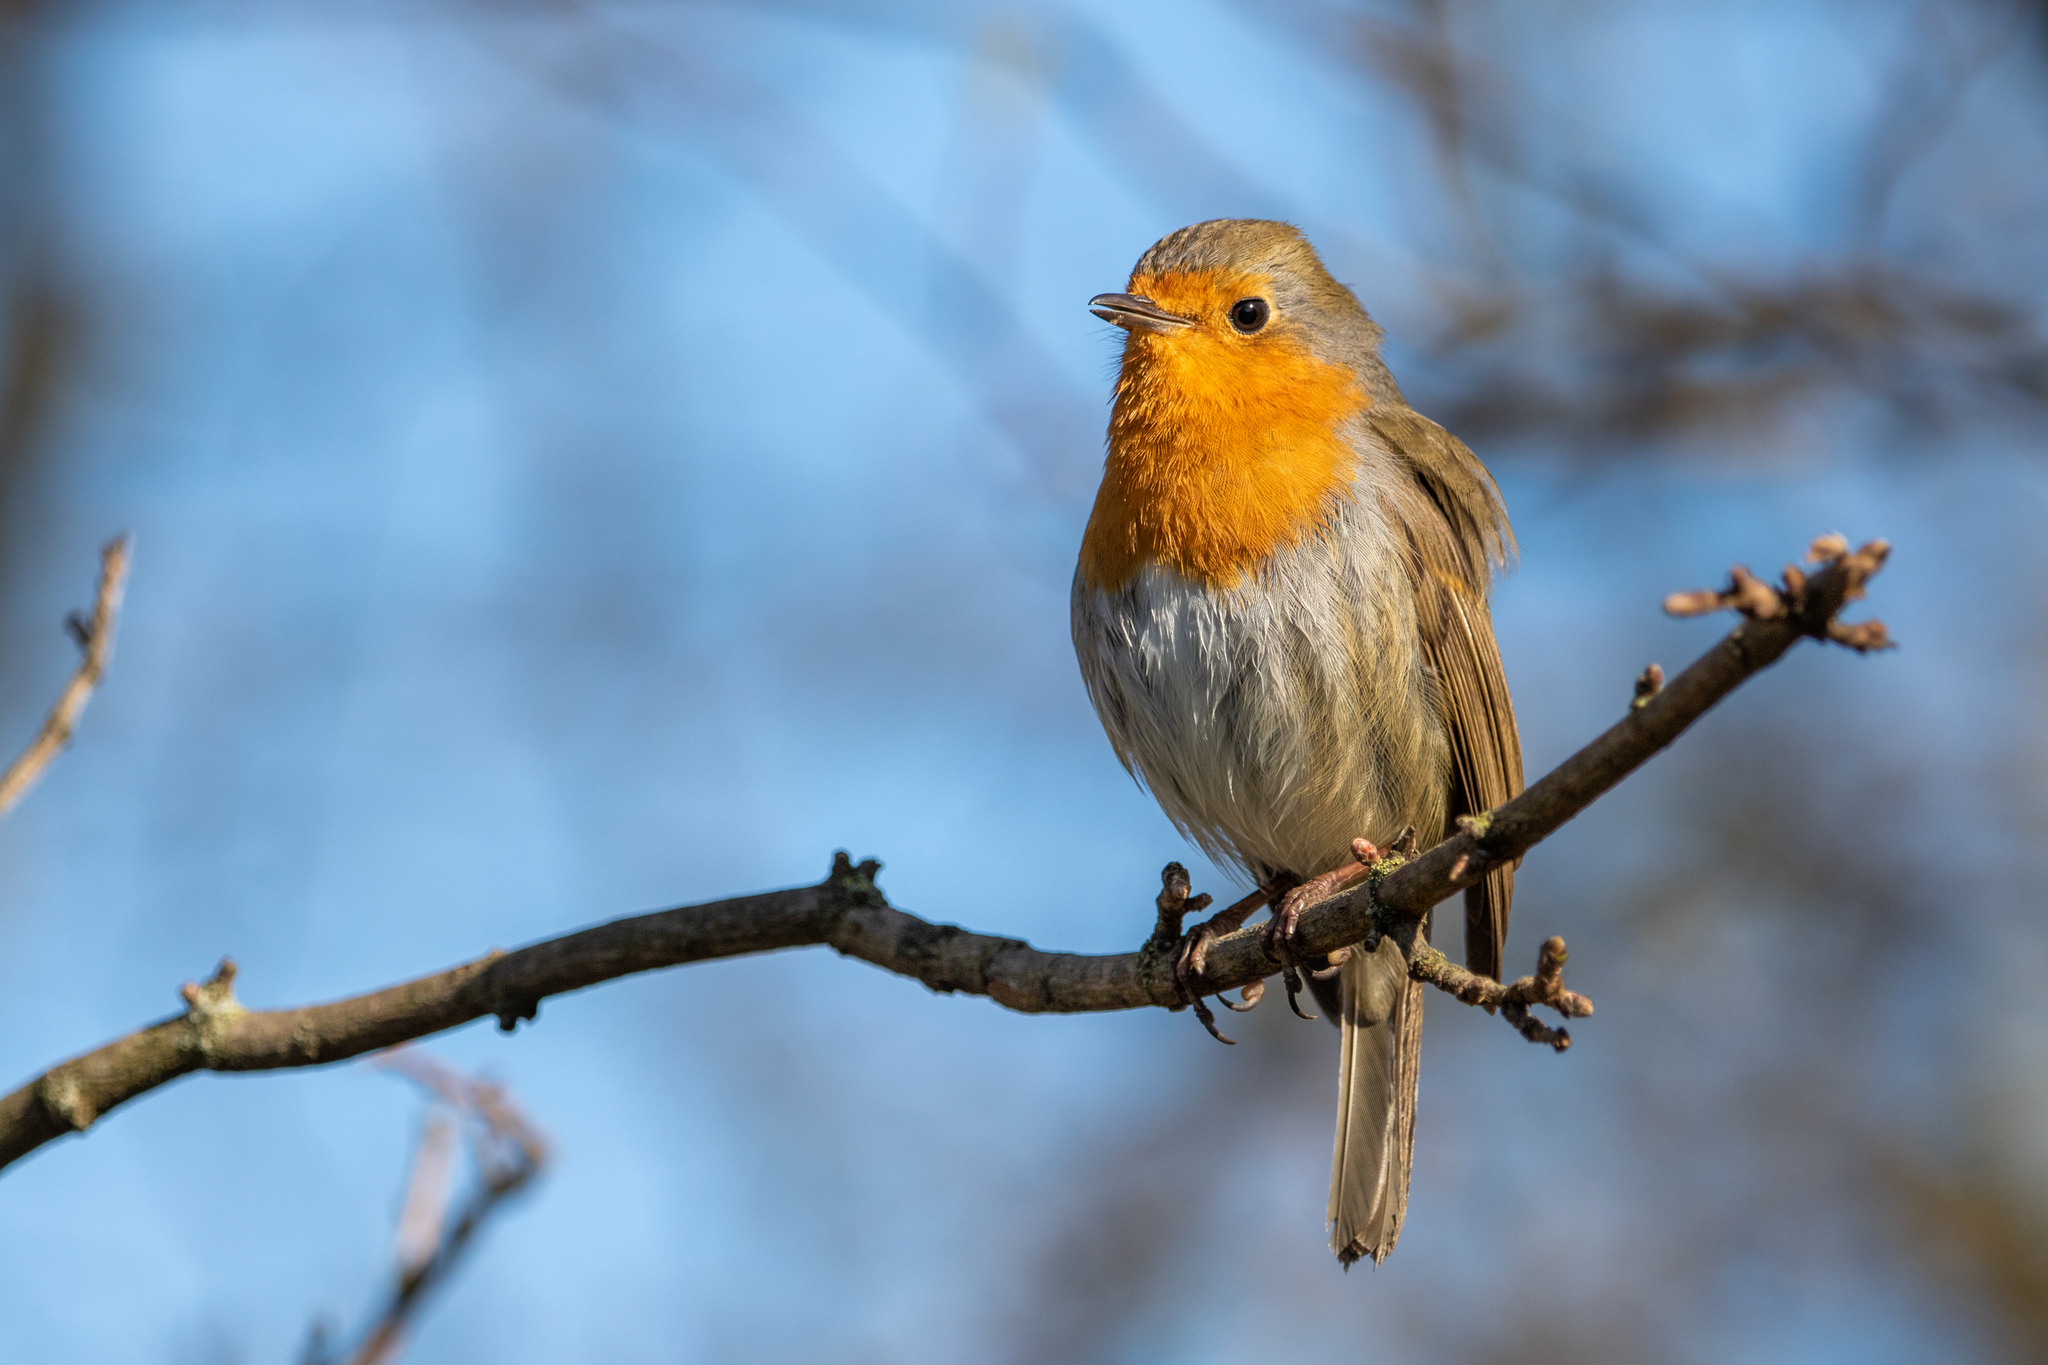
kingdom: Animalia
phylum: Chordata
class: Aves
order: Passeriformes
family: Muscicapidae
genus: Erithacus
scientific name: Erithacus rubecula
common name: European robin
